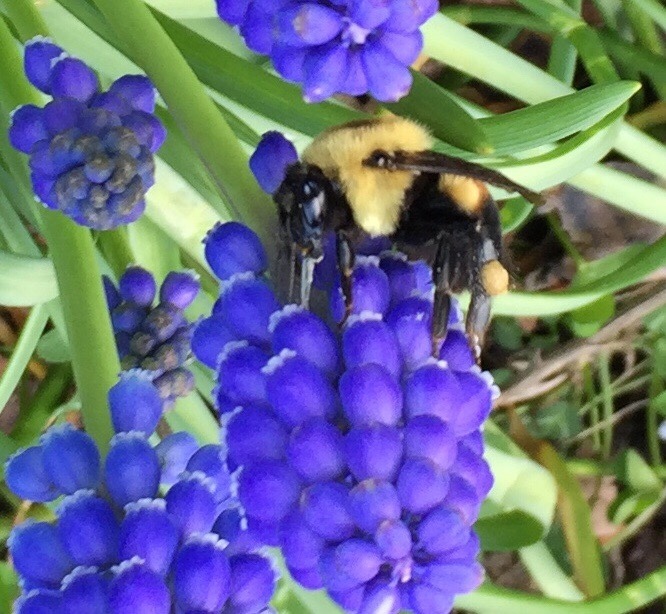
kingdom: Animalia
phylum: Arthropoda
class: Insecta
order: Hymenoptera
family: Apidae
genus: Bombus
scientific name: Bombus griseocollis
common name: Brown-belted bumble bee
